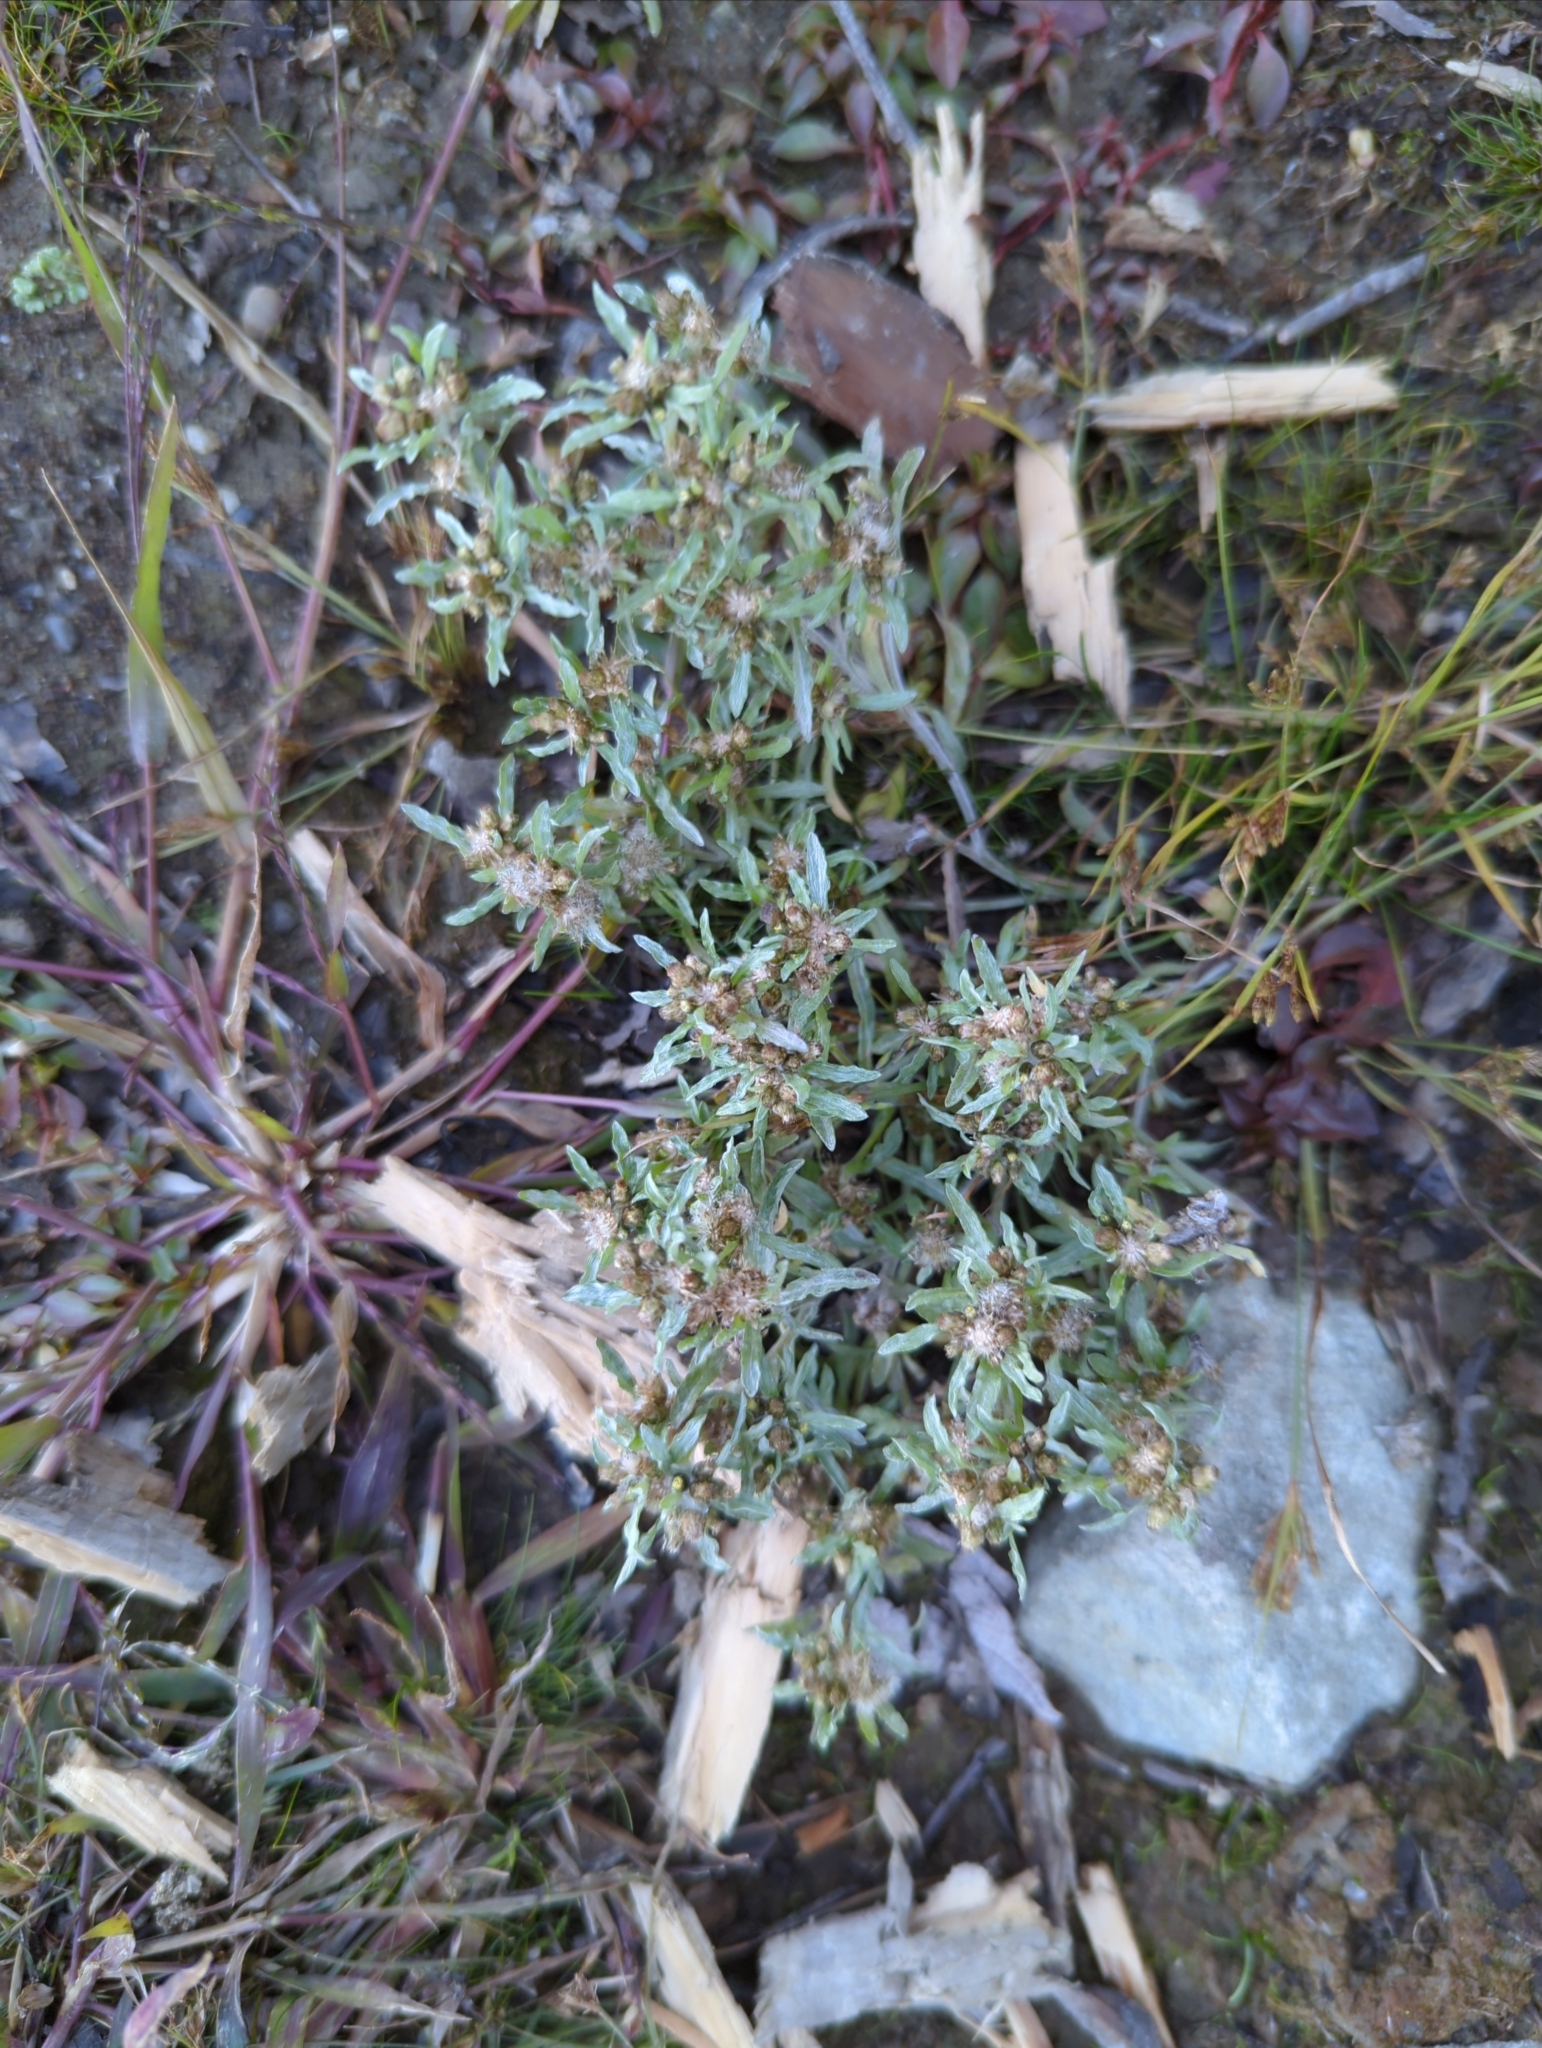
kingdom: Plantae
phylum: Tracheophyta
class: Magnoliopsida
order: Asterales
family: Asteraceae
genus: Gnaphalium
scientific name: Gnaphalium uliginosum
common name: Marsh cudweed
